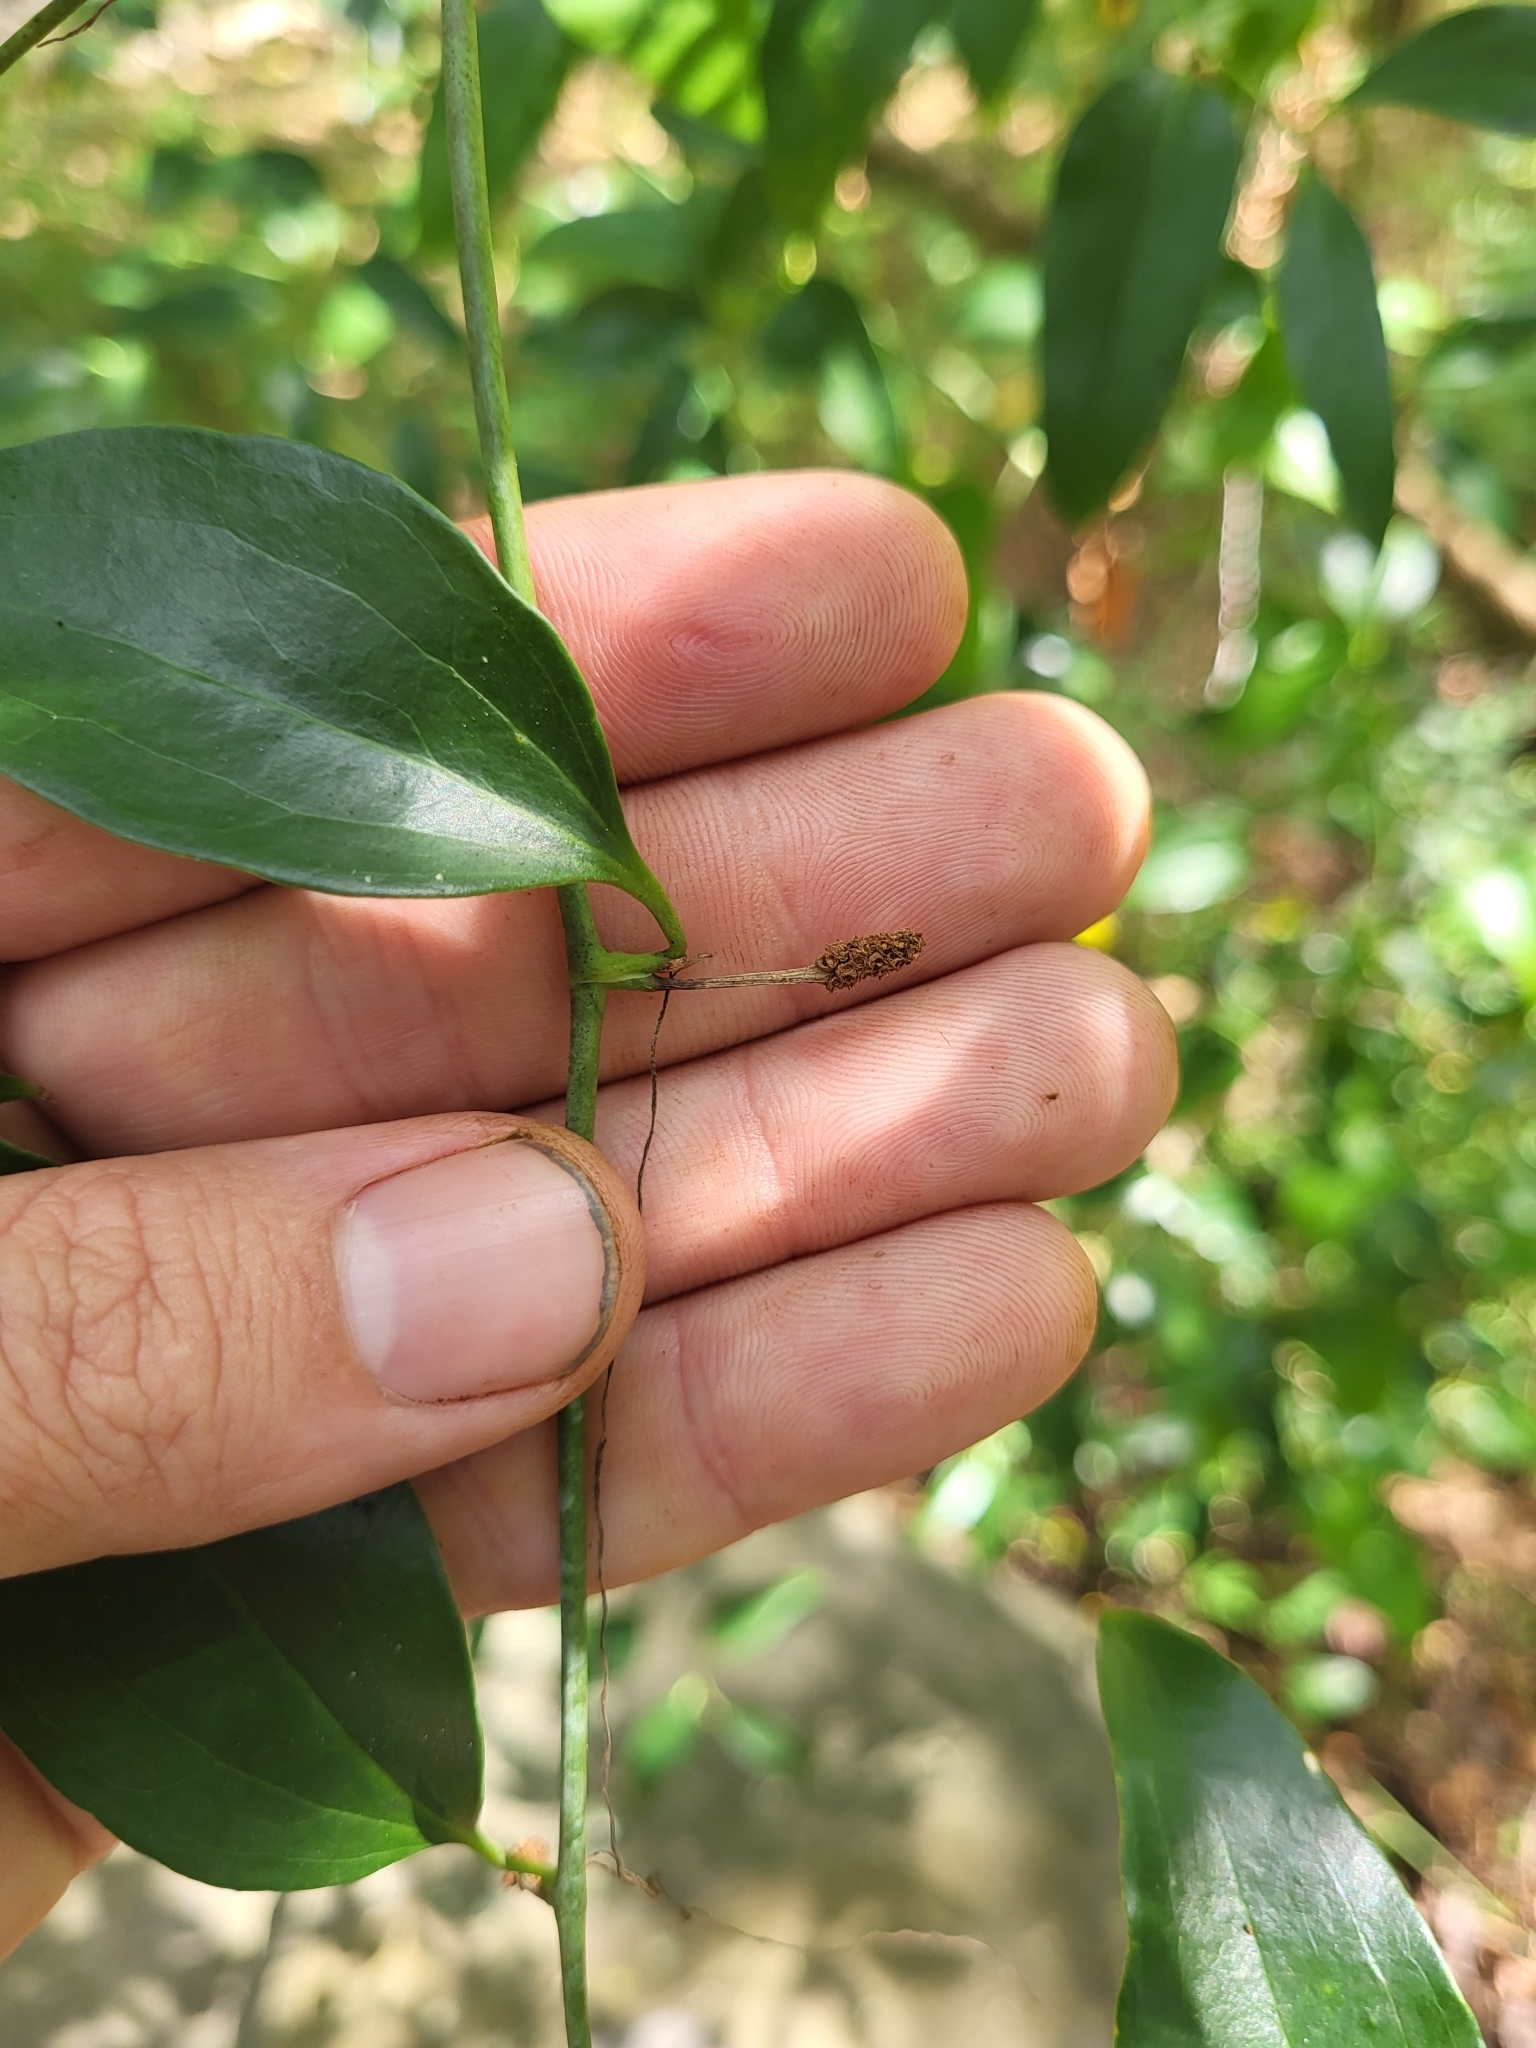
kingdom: Plantae
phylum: Tracheophyta
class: Liliopsida
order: Liliales
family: Smilacaceae
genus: Smilax
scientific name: Smilax maritima
